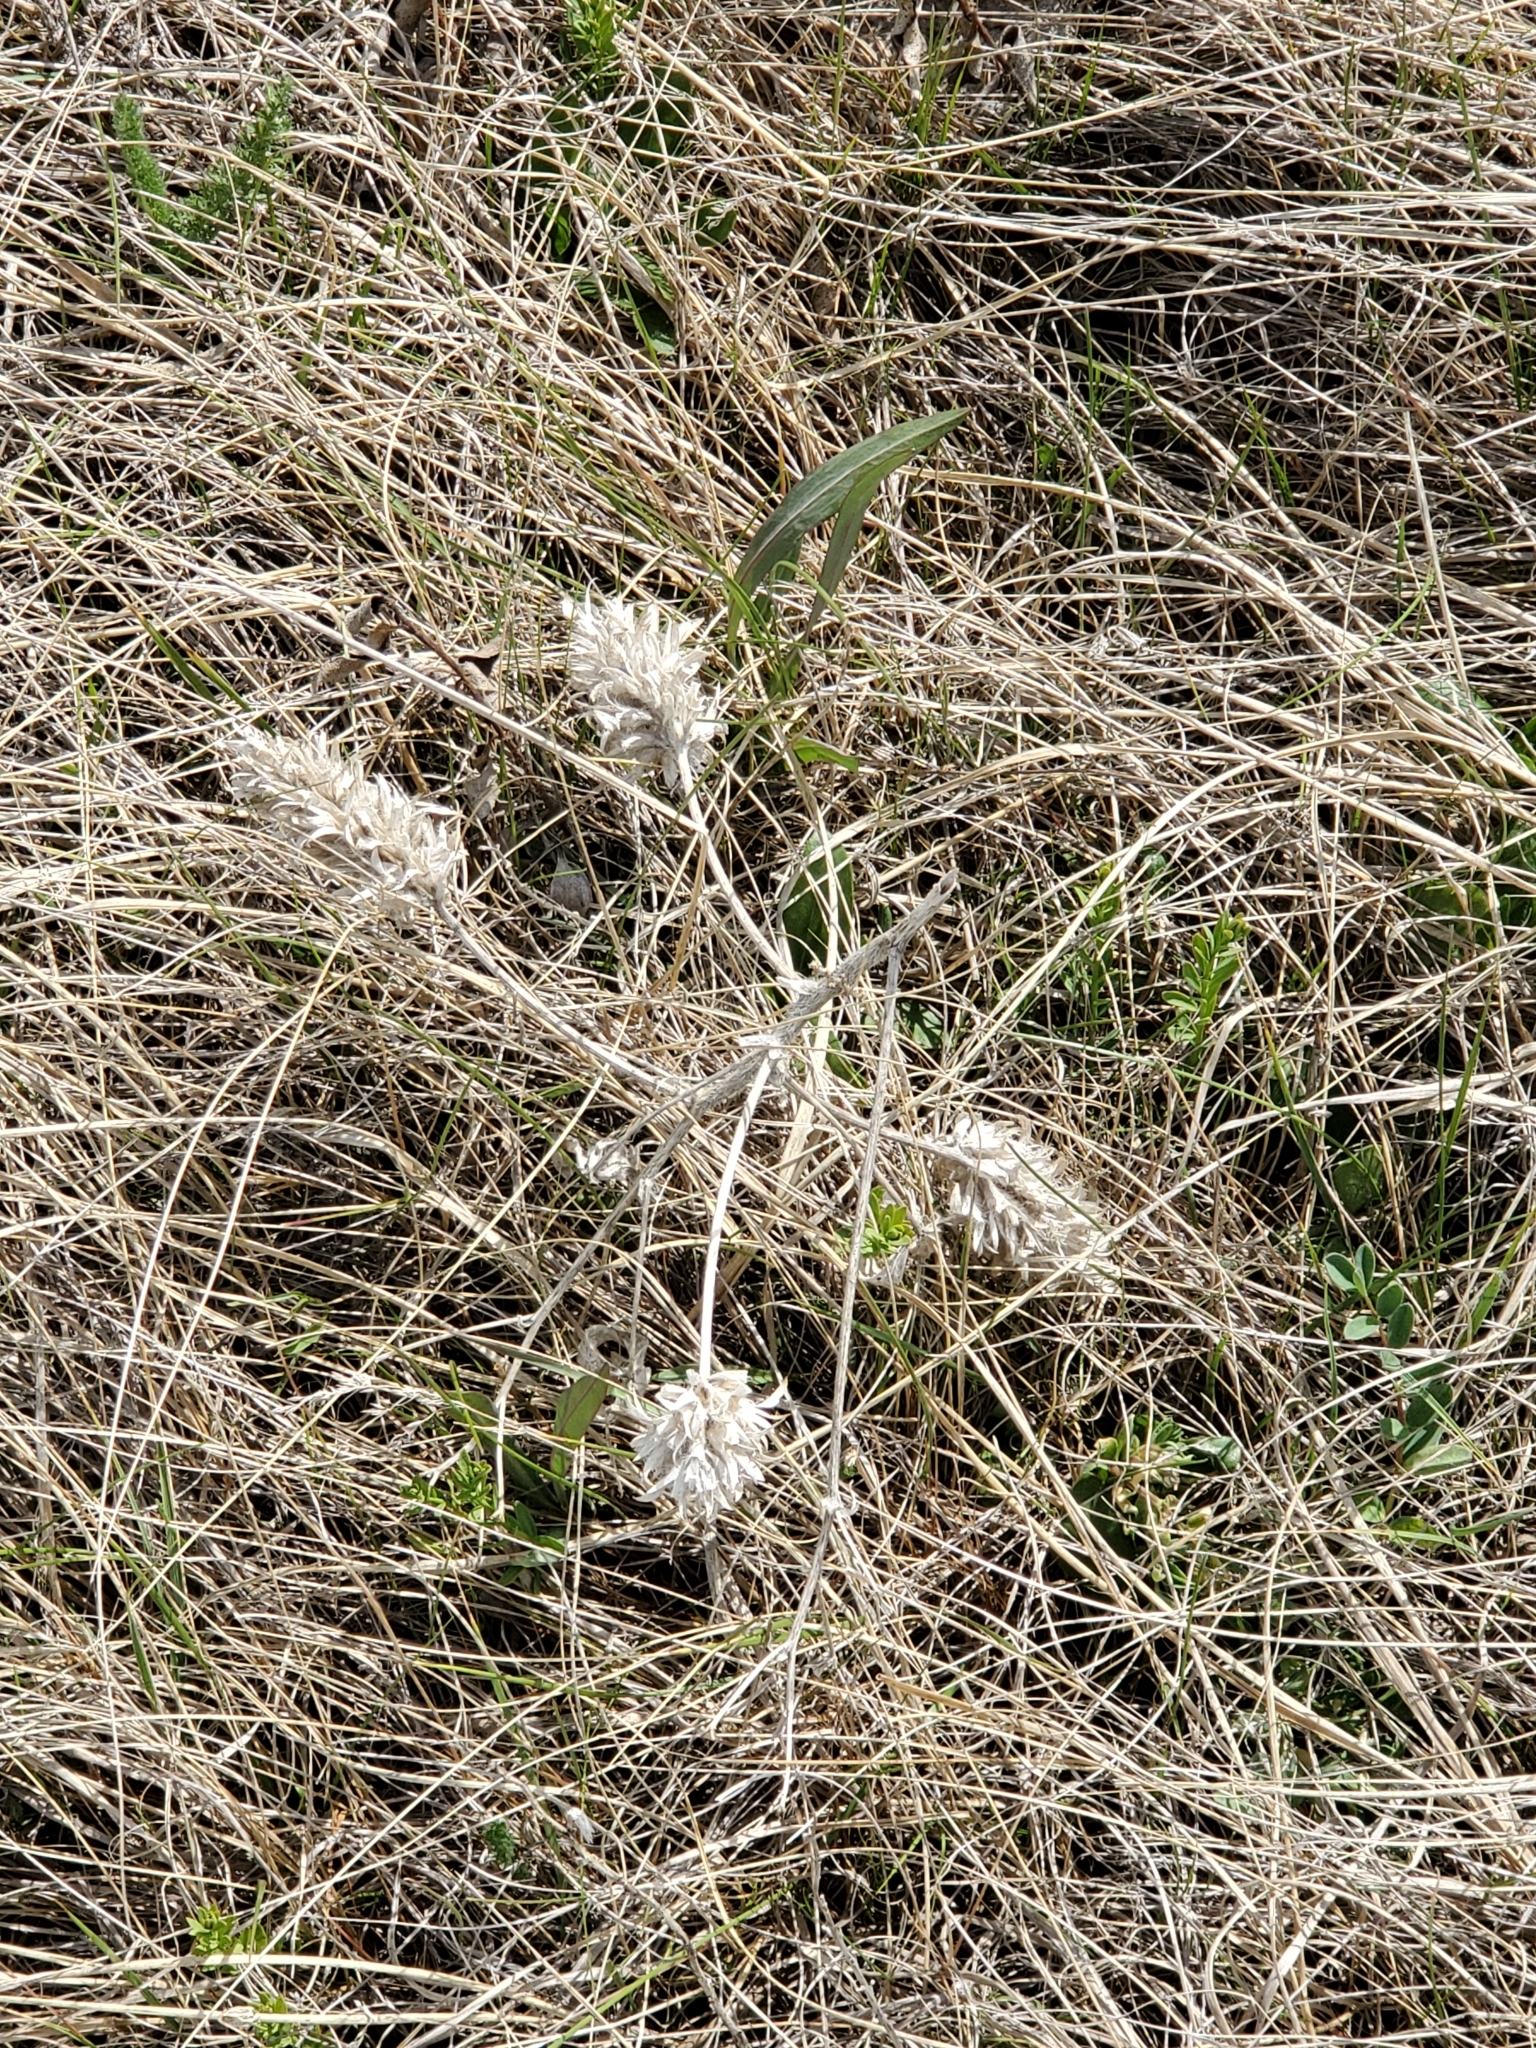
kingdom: Plantae
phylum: Tracheophyta
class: Magnoliopsida
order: Fabales
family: Fabaceae
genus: Pediomelum
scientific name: Pediomelum esculentum
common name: Indian-turnip
